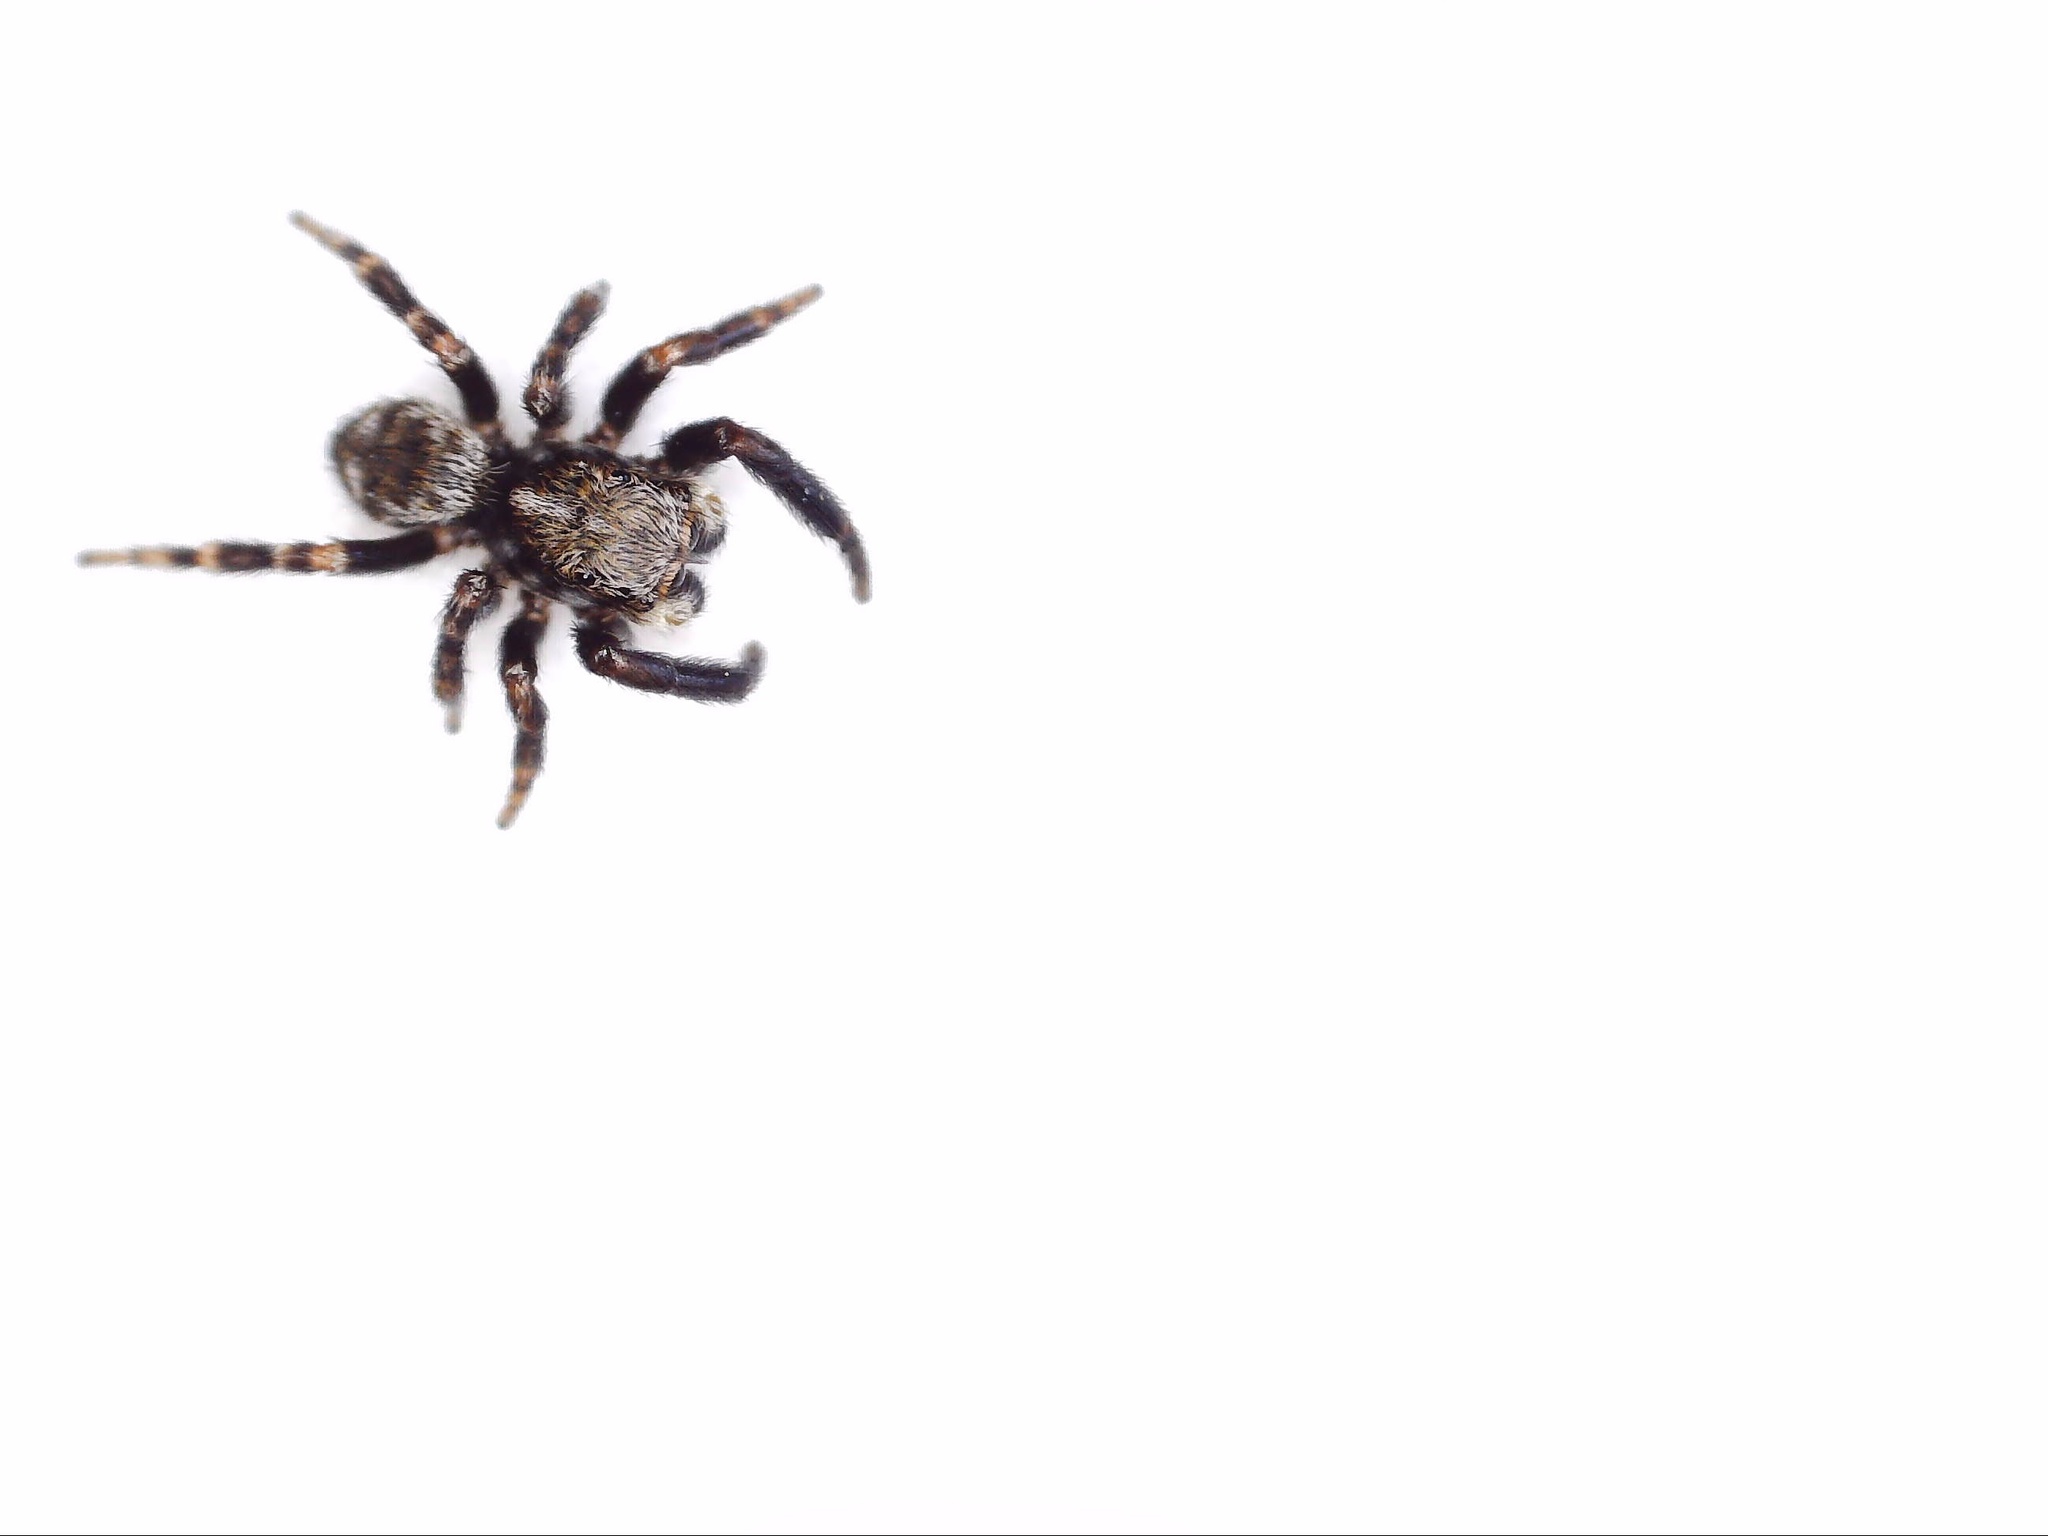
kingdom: Animalia
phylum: Arthropoda
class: Arachnida
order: Araneae
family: Salticidae
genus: Pseudeuophrys
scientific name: Pseudeuophrys erratica
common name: Jumping spider
